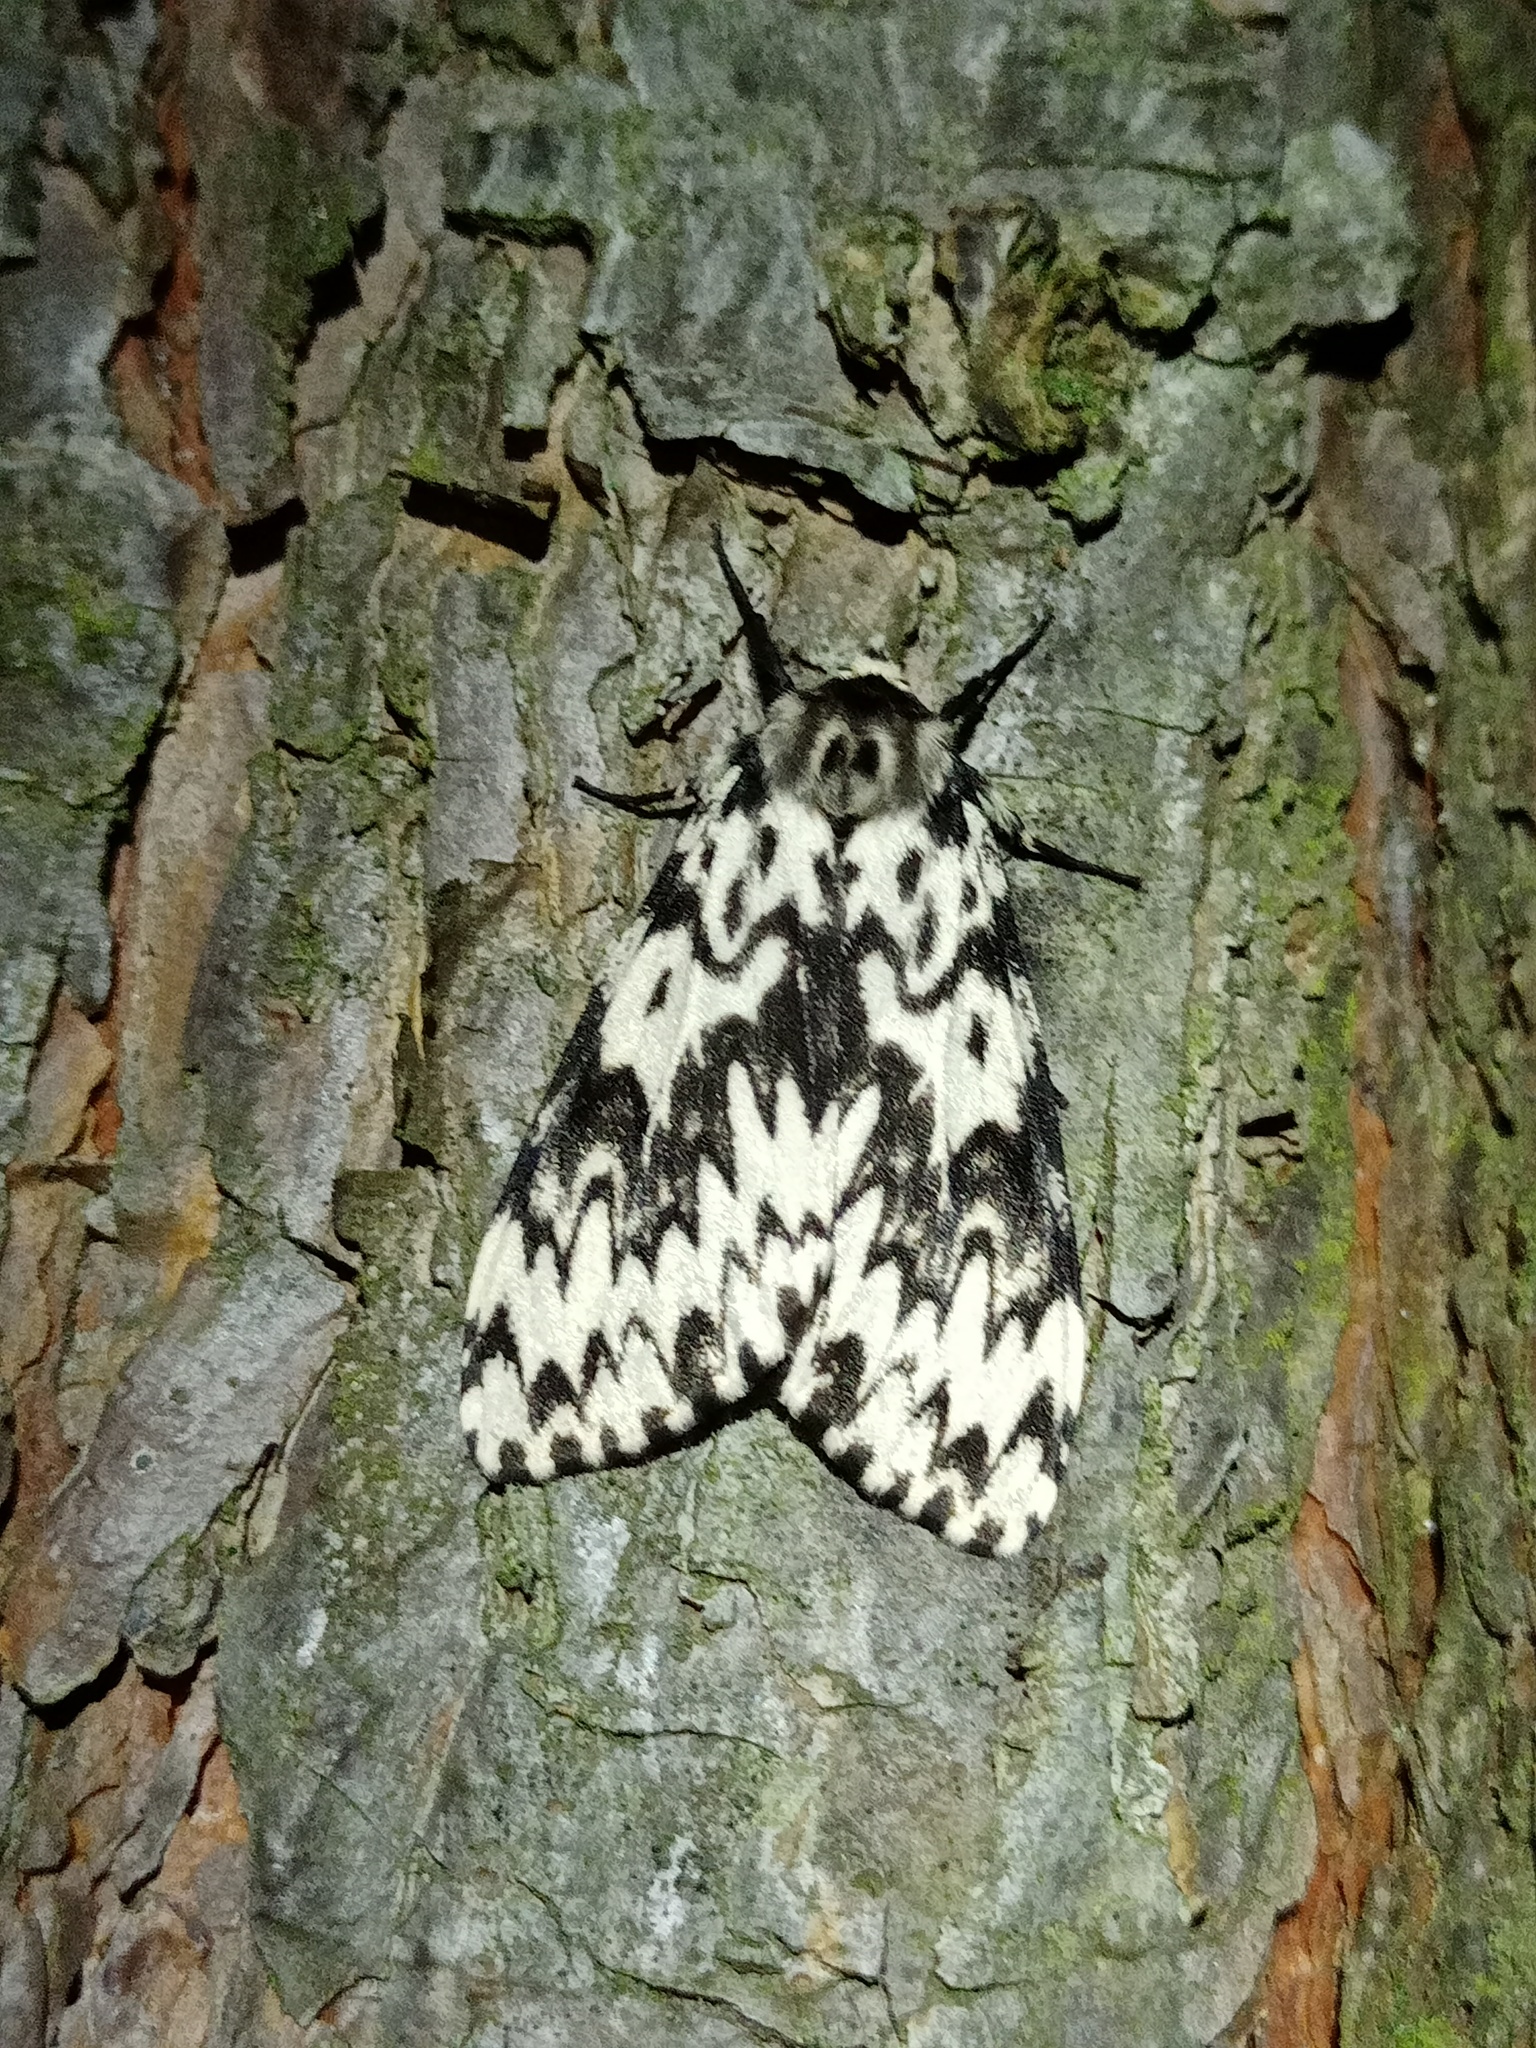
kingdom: Animalia
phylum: Arthropoda
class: Insecta
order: Lepidoptera
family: Erebidae
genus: Lymantria
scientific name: Lymantria monacha
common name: Black arches
